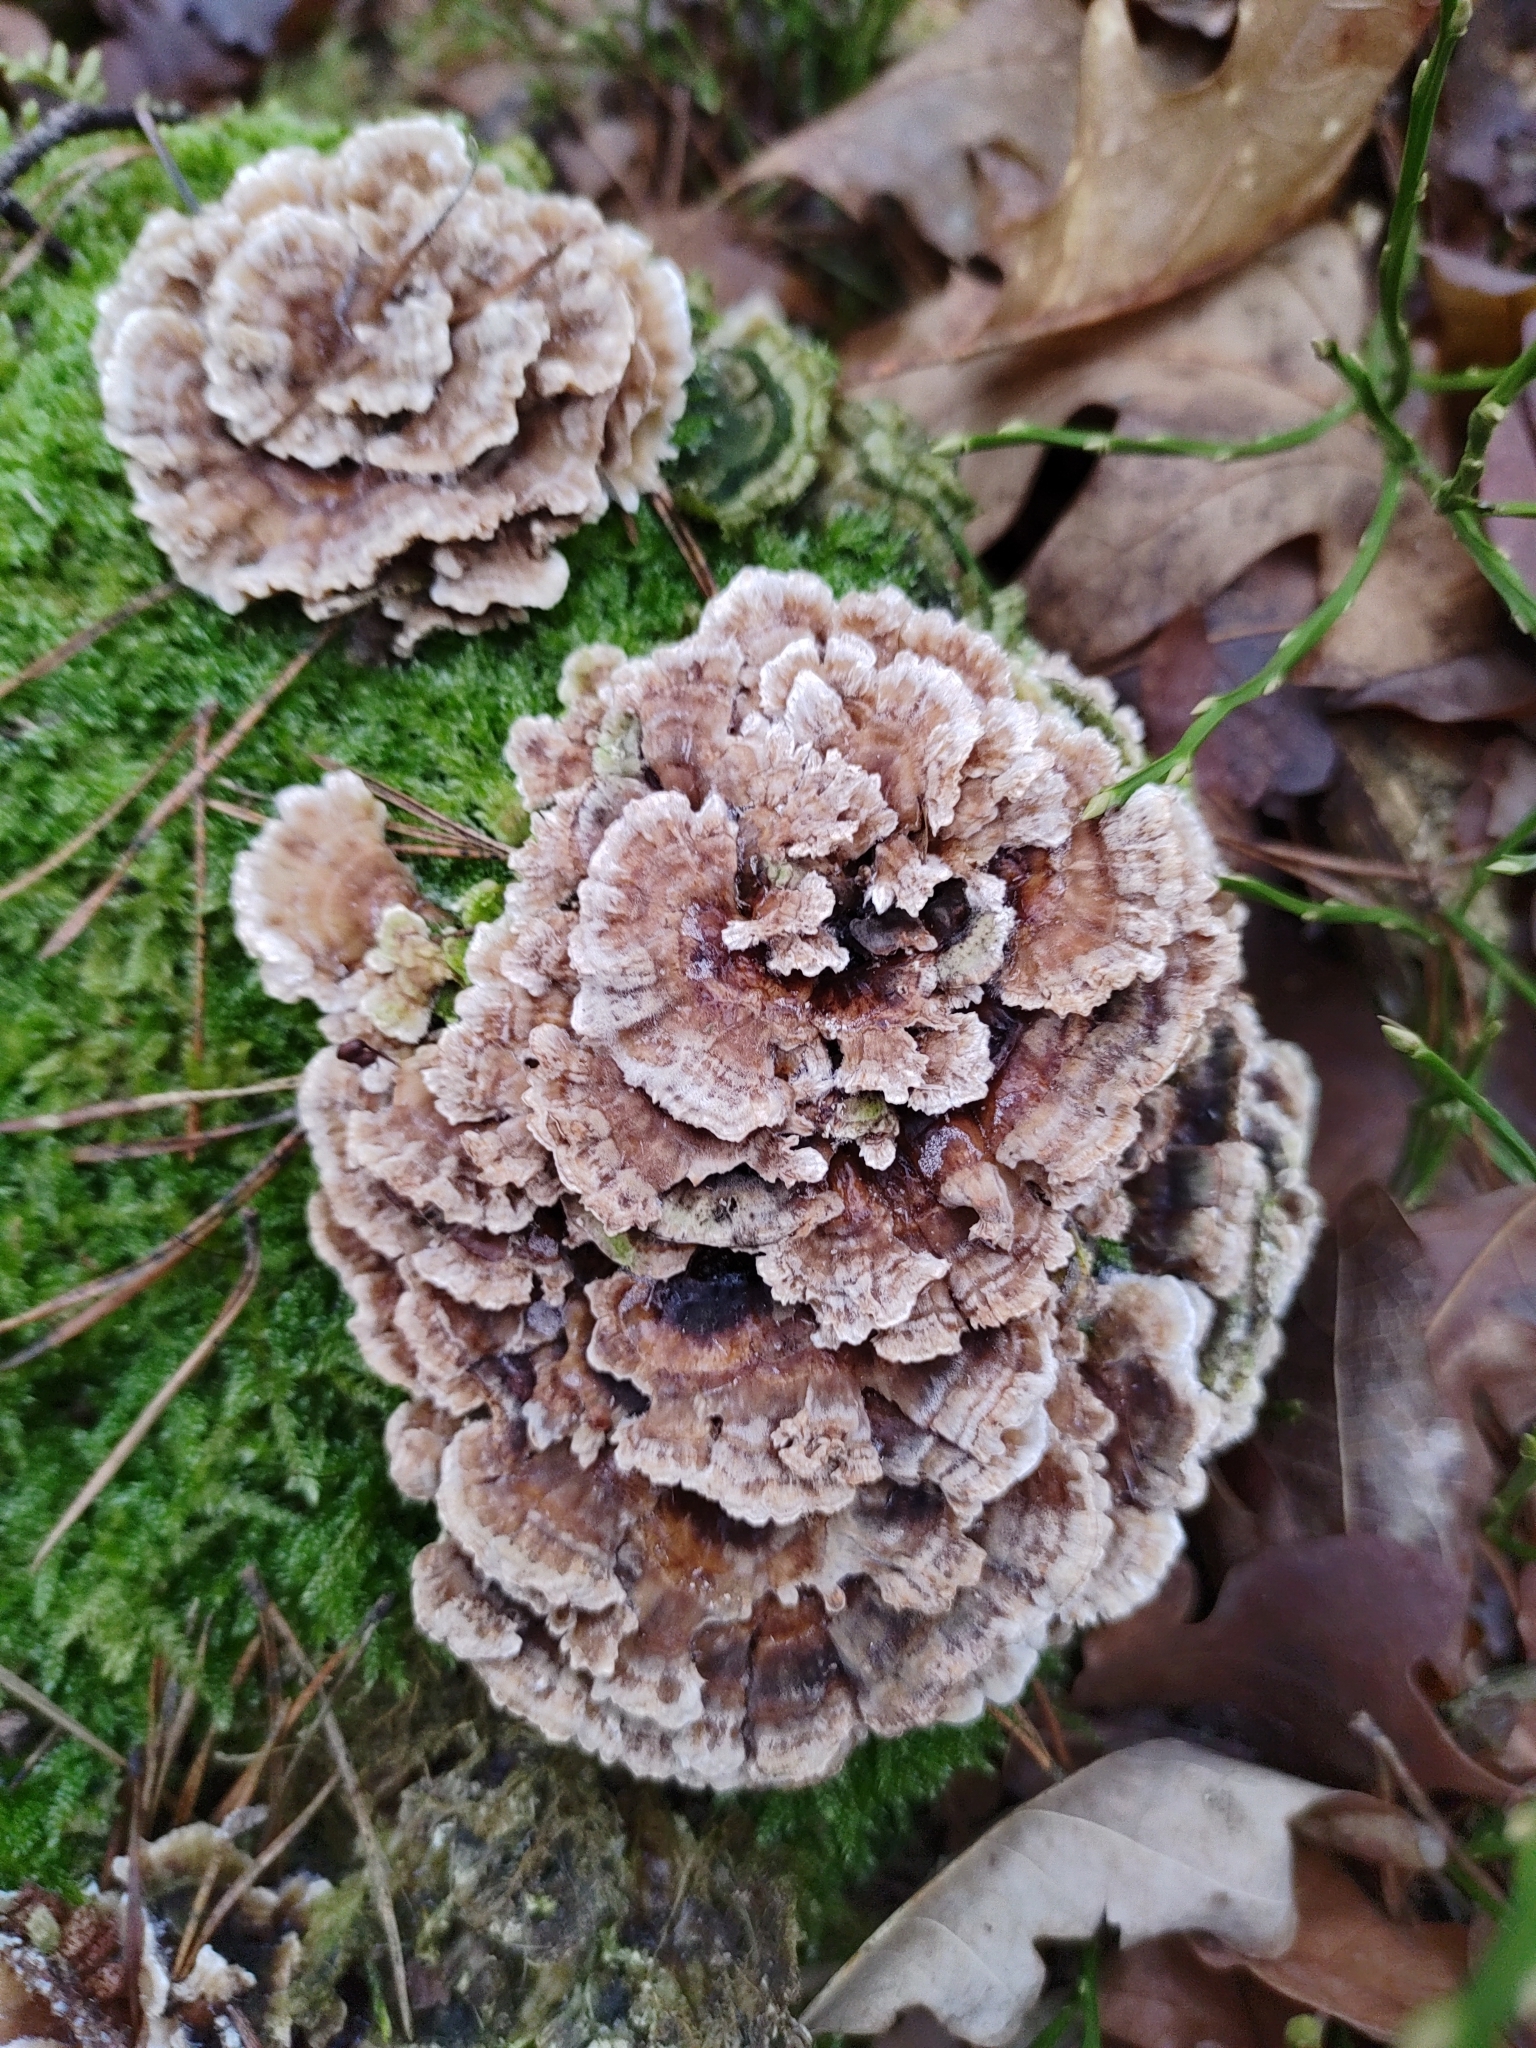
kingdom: Fungi
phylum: Basidiomycota
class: Agaricomycetes
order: Polyporales
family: Polyporaceae
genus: Trametes
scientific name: Trametes versicolor
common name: Turkeytail
